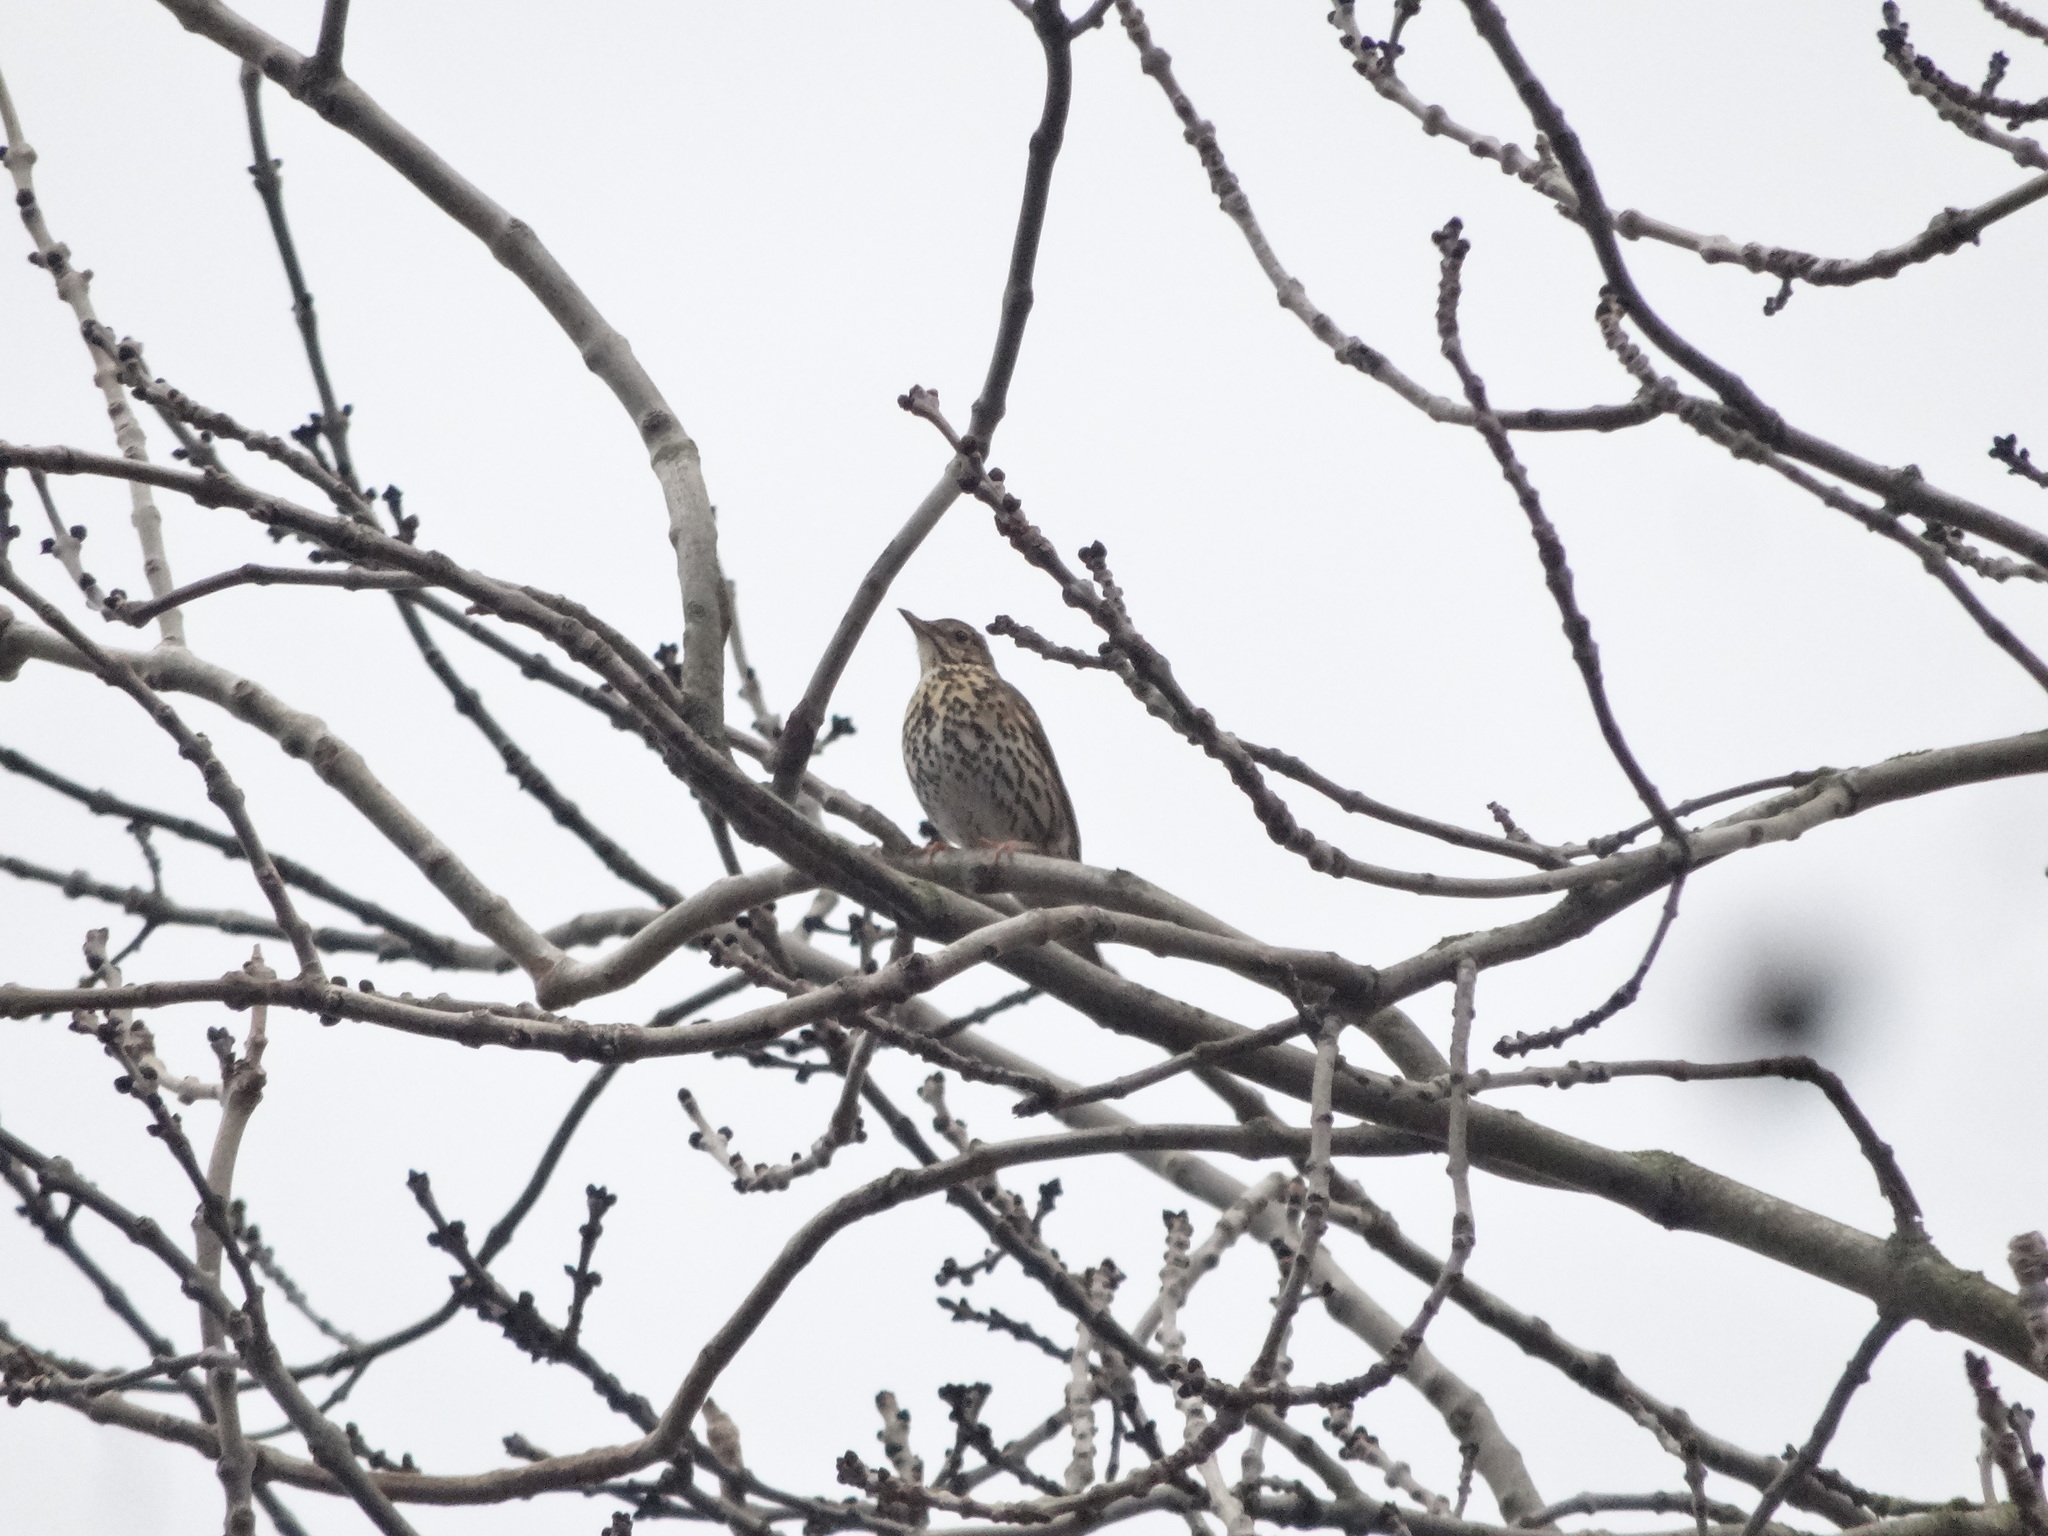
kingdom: Animalia
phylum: Chordata
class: Aves
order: Passeriformes
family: Turdidae
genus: Turdus
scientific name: Turdus philomelos
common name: Song thrush
